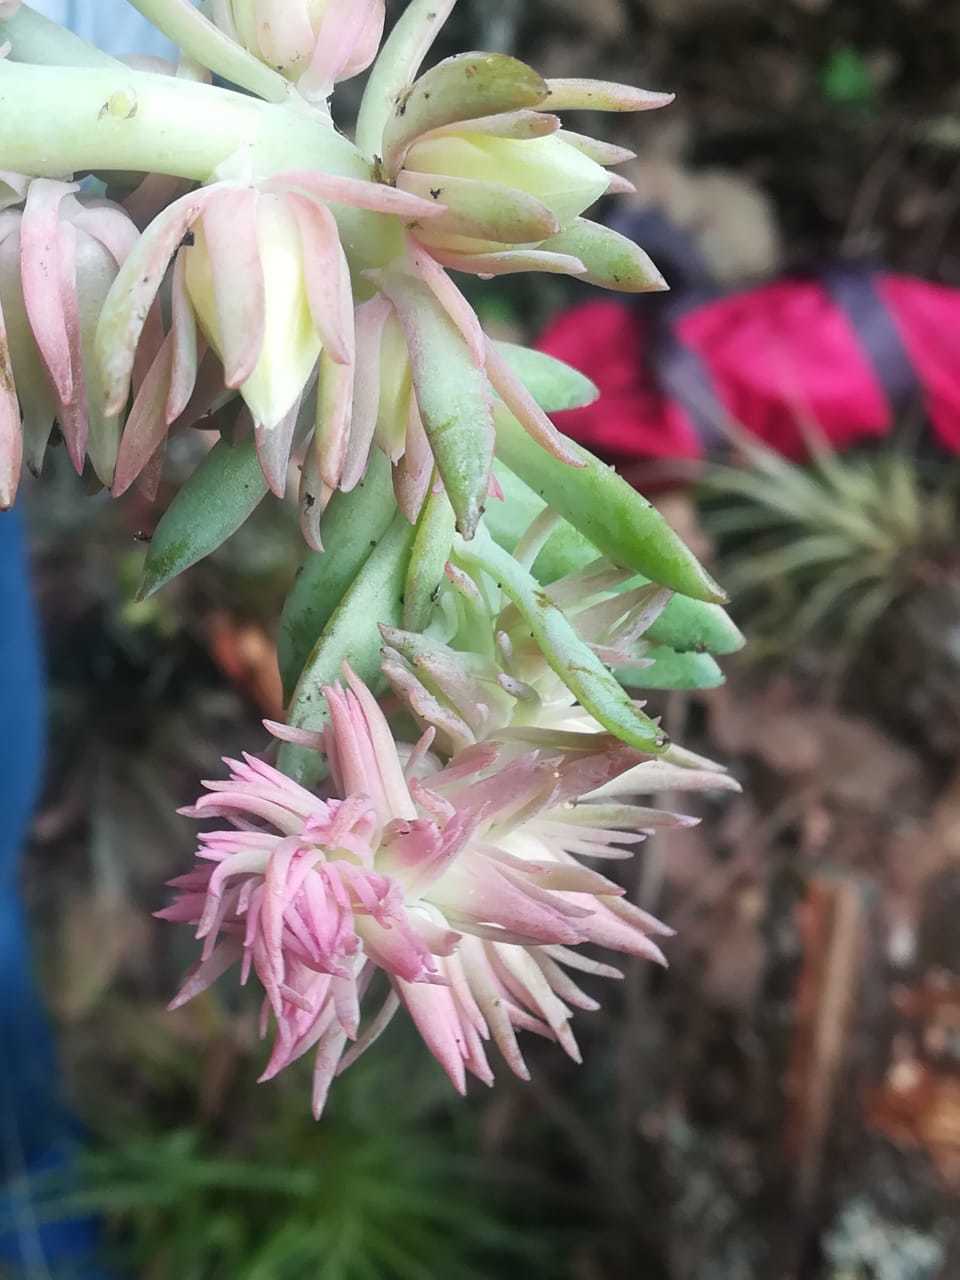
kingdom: Plantae
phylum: Tracheophyta
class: Magnoliopsida
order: Saxifragales
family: Crassulaceae
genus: Echeveria
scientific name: Echeveria rosea
